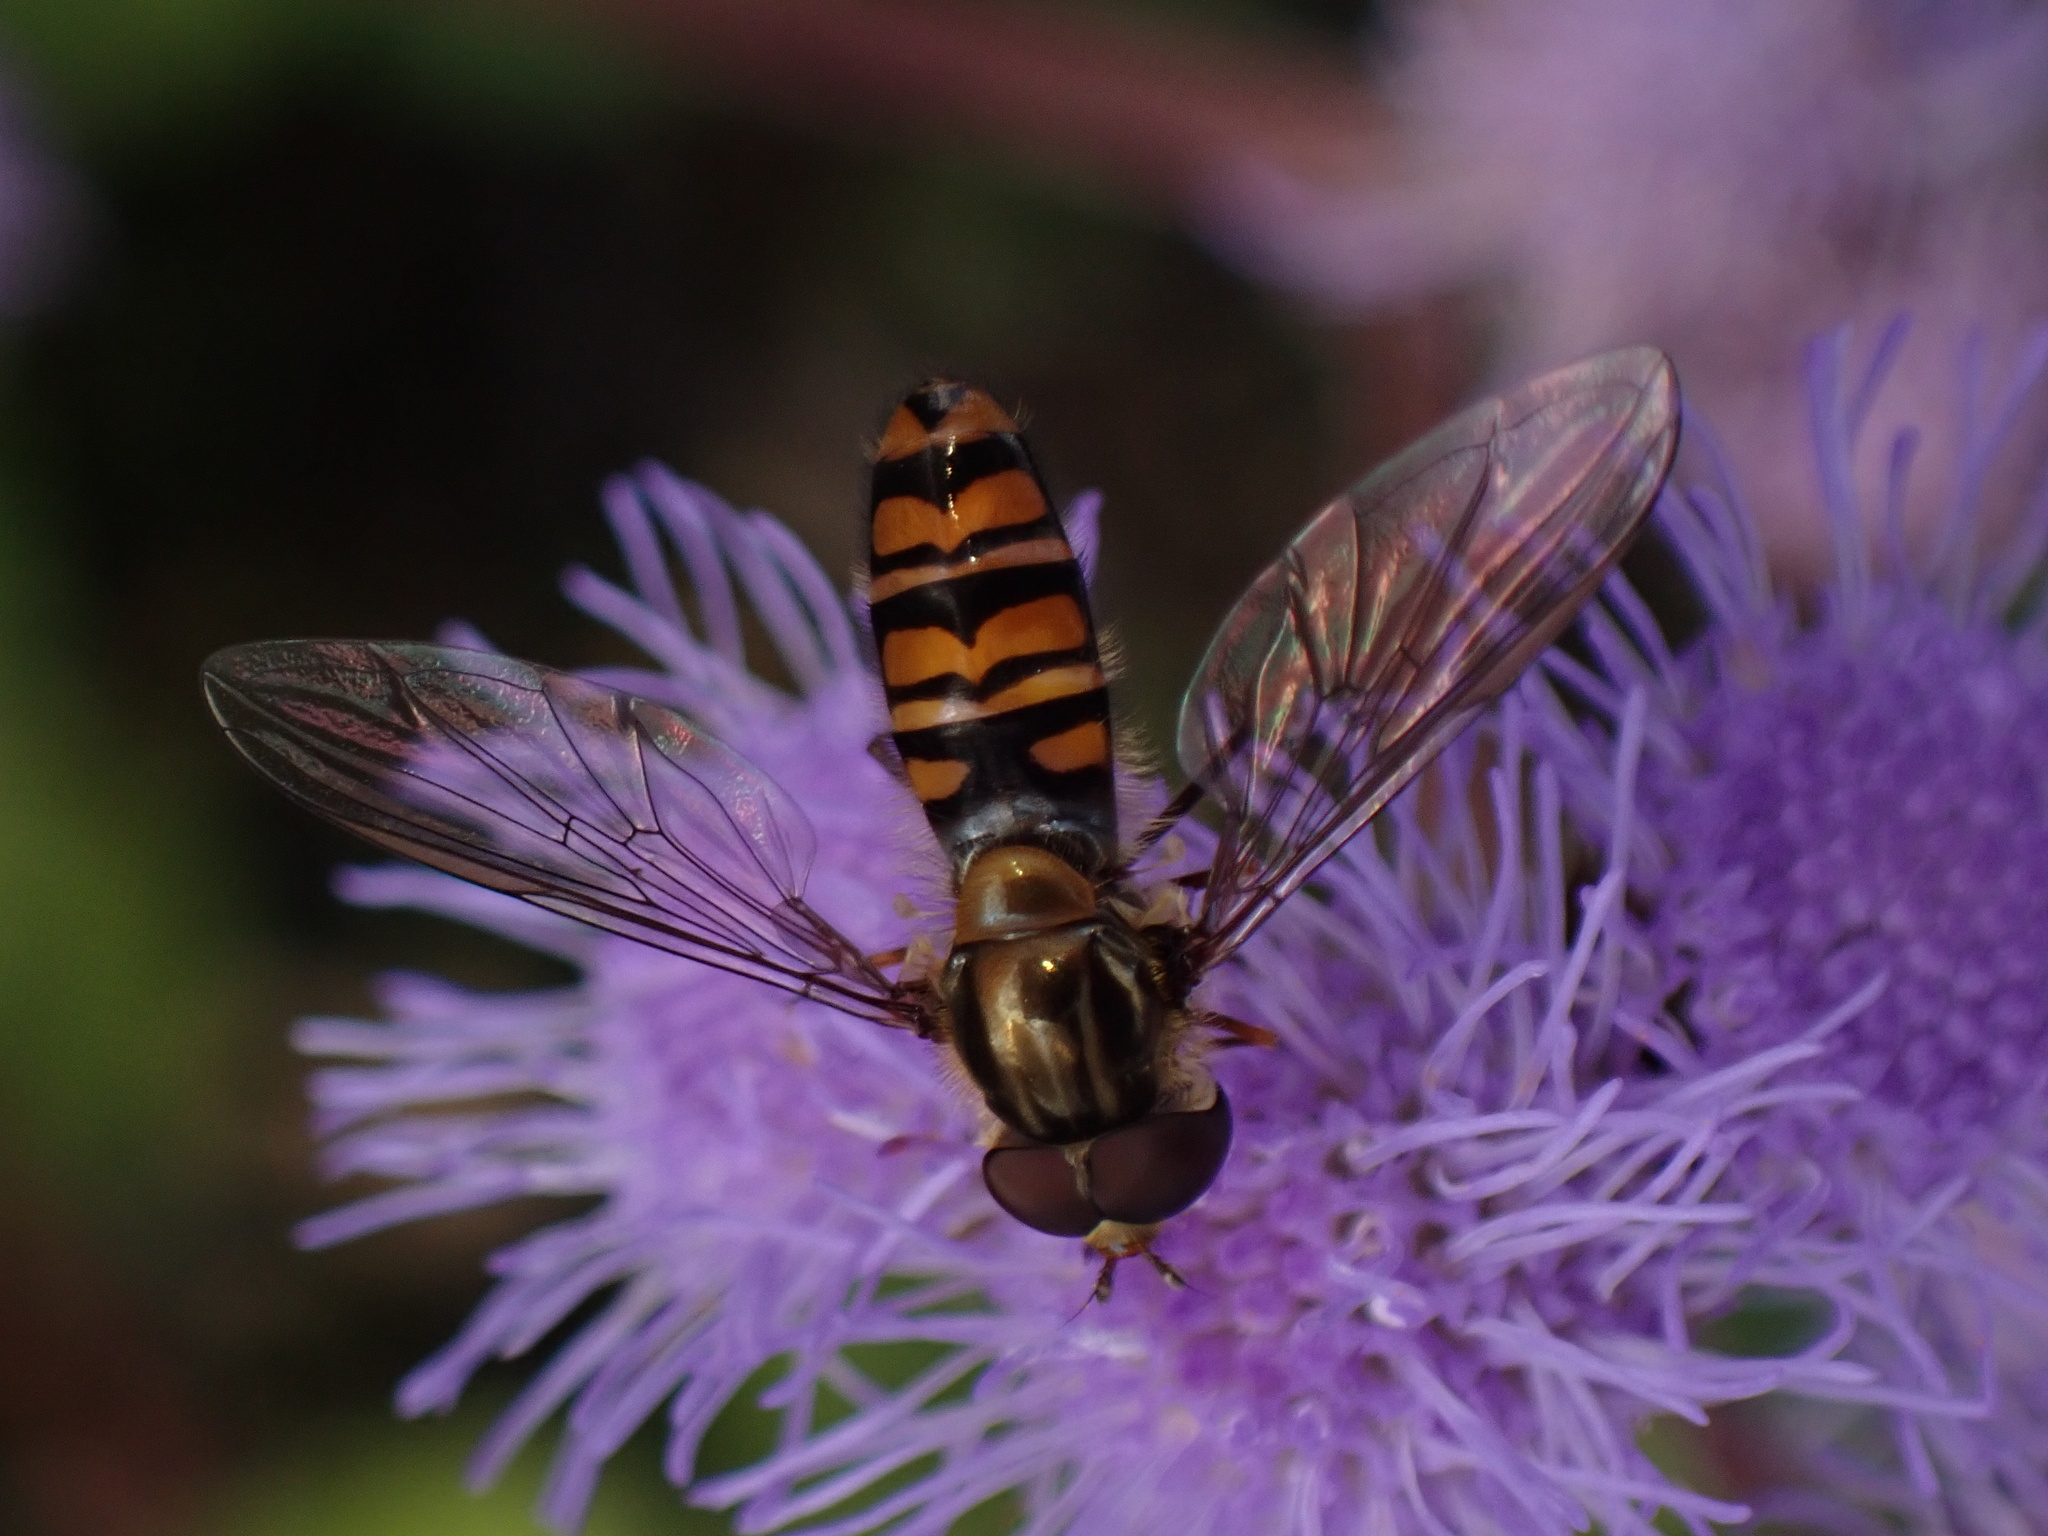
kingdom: Animalia
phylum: Arthropoda
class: Insecta
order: Diptera
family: Syrphidae
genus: Episyrphus
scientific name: Episyrphus balteatus
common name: Marmalade hoverfly
